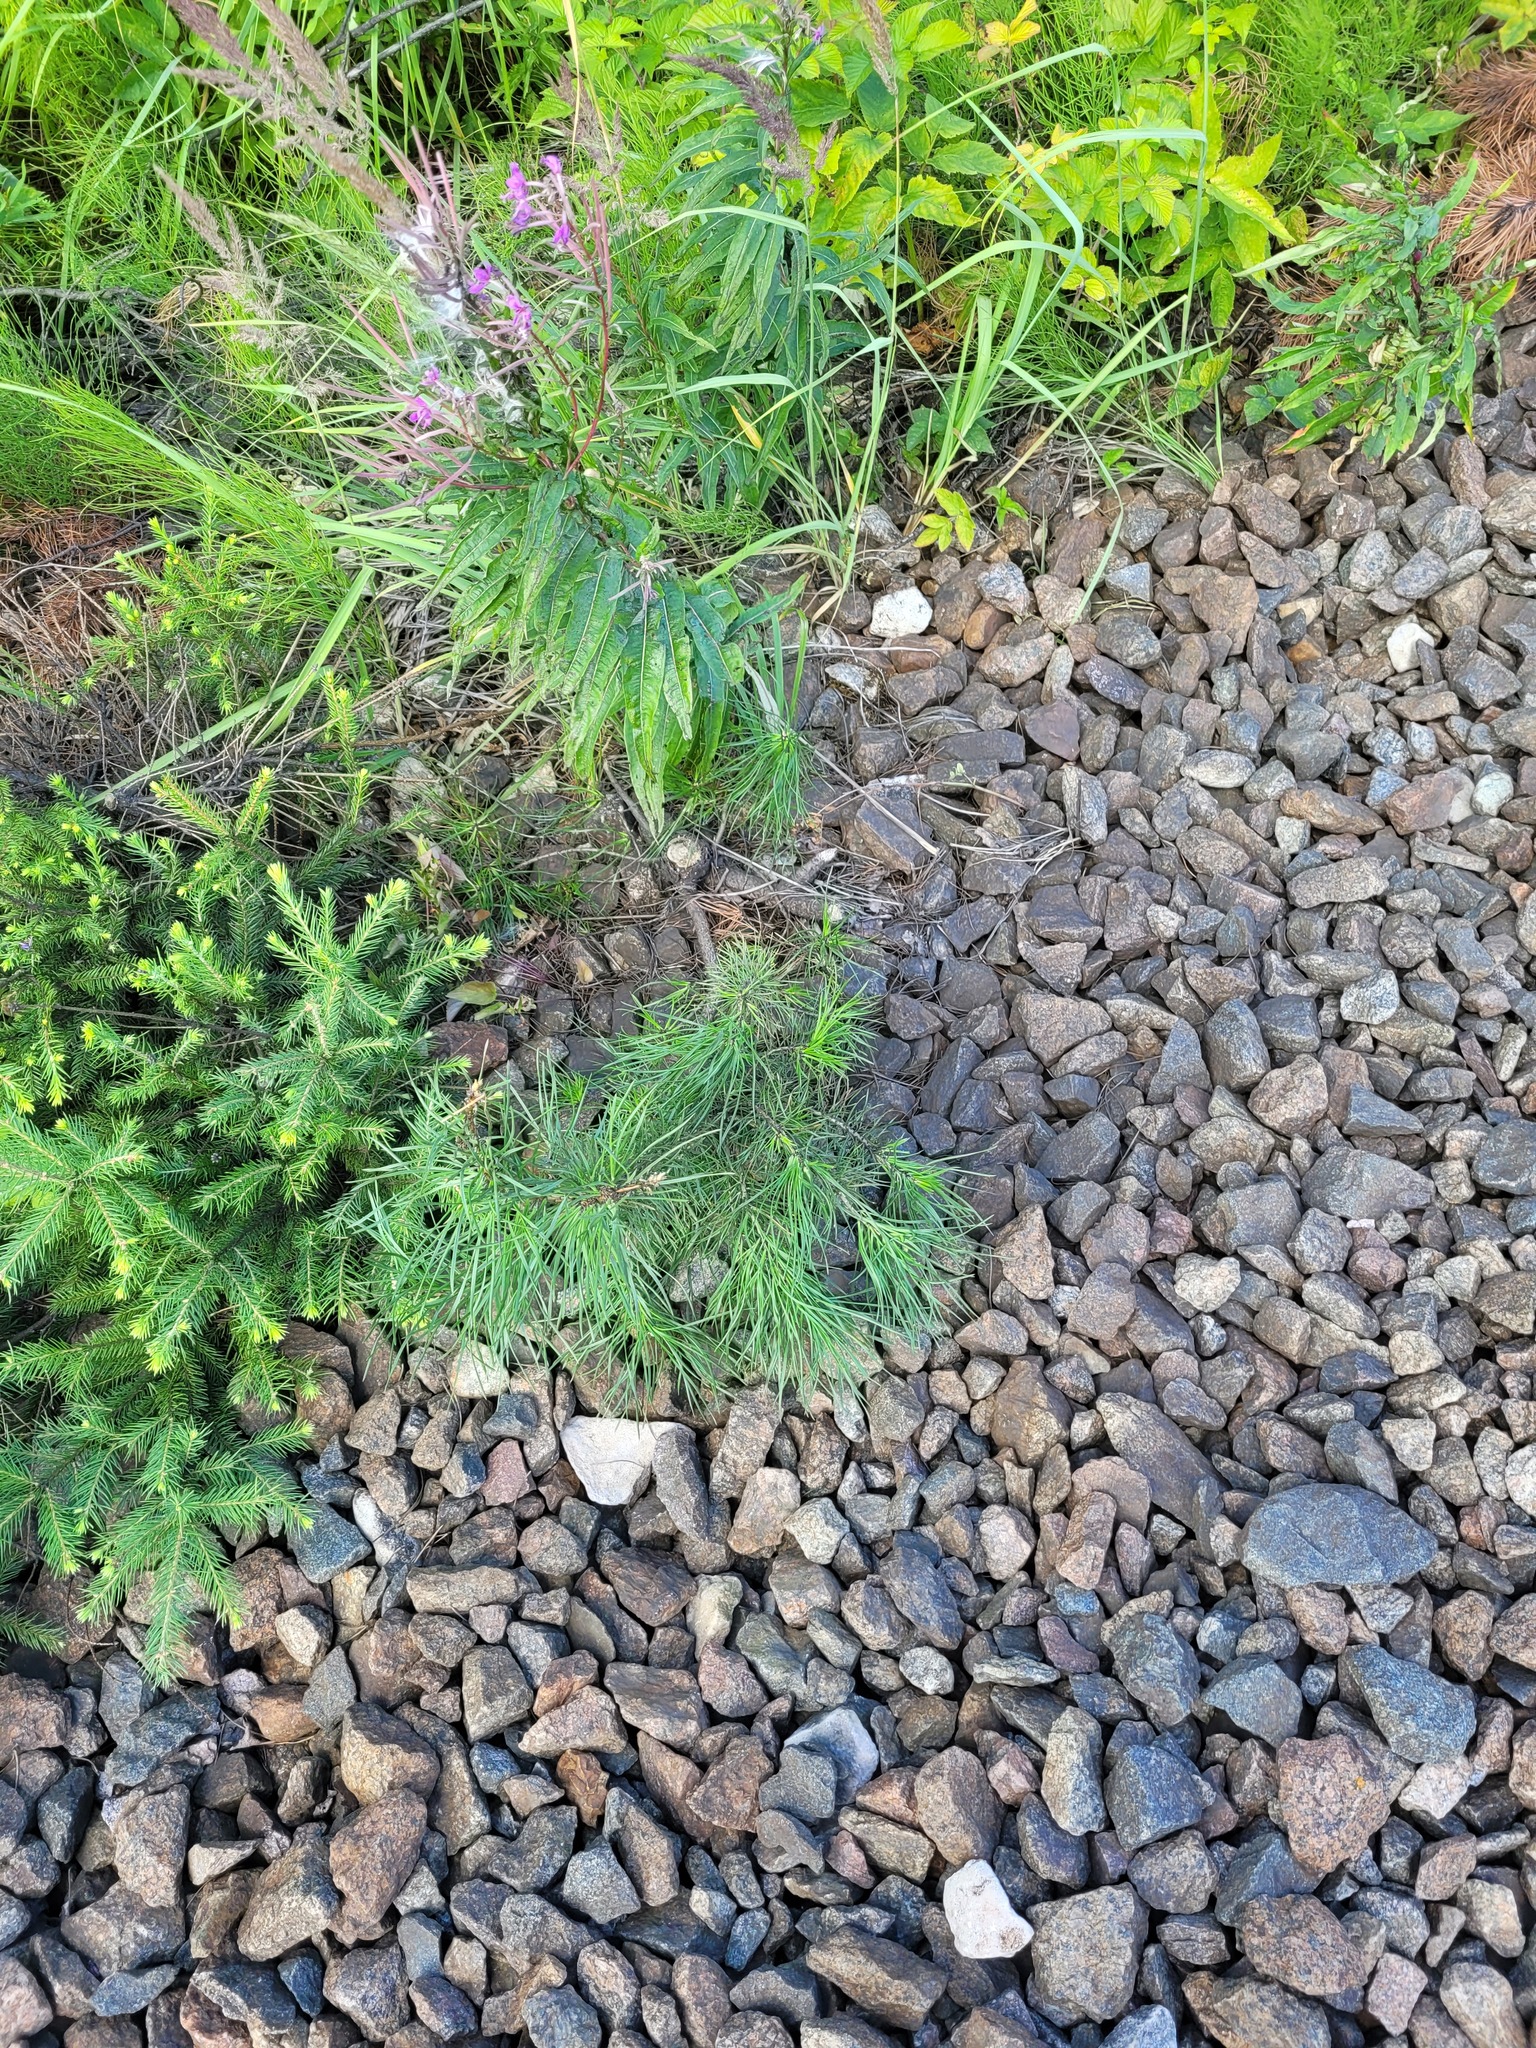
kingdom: Plantae
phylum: Tracheophyta
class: Pinopsida
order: Pinales
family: Pinaceae
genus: Pinus
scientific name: Pinus sylvestris
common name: Scots pine
